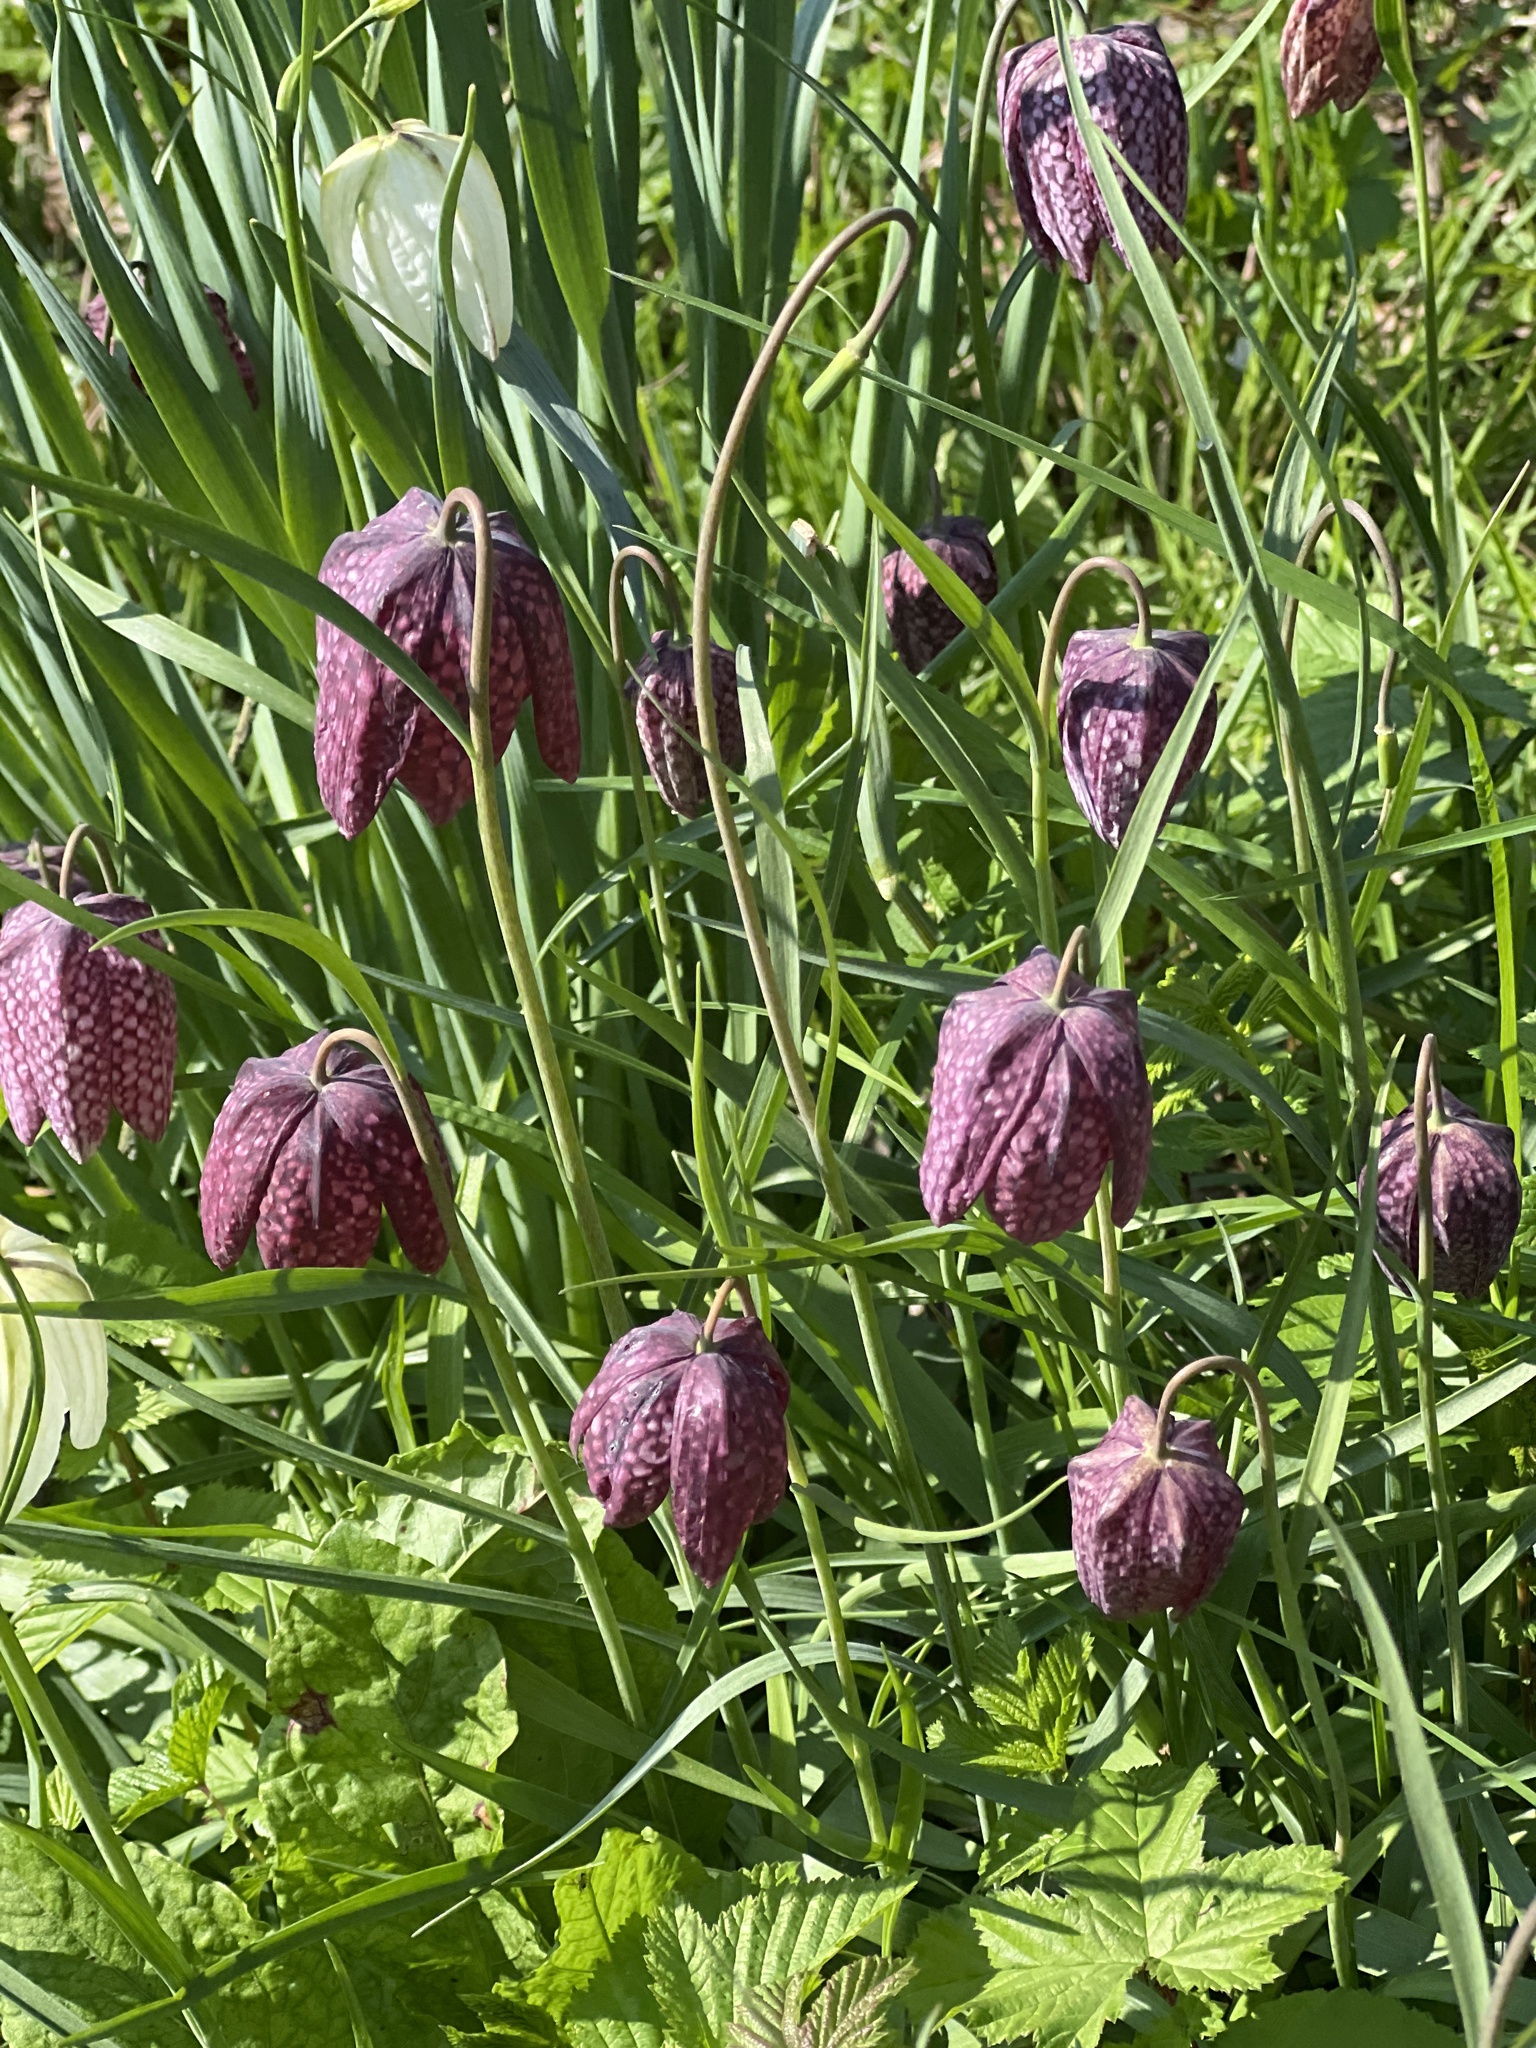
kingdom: Plantae
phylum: Tracheophyta
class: Liliopsida
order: Liliales
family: Liliaceae
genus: Fritillaria
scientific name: Fritillaria meleagris
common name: Fritillary
